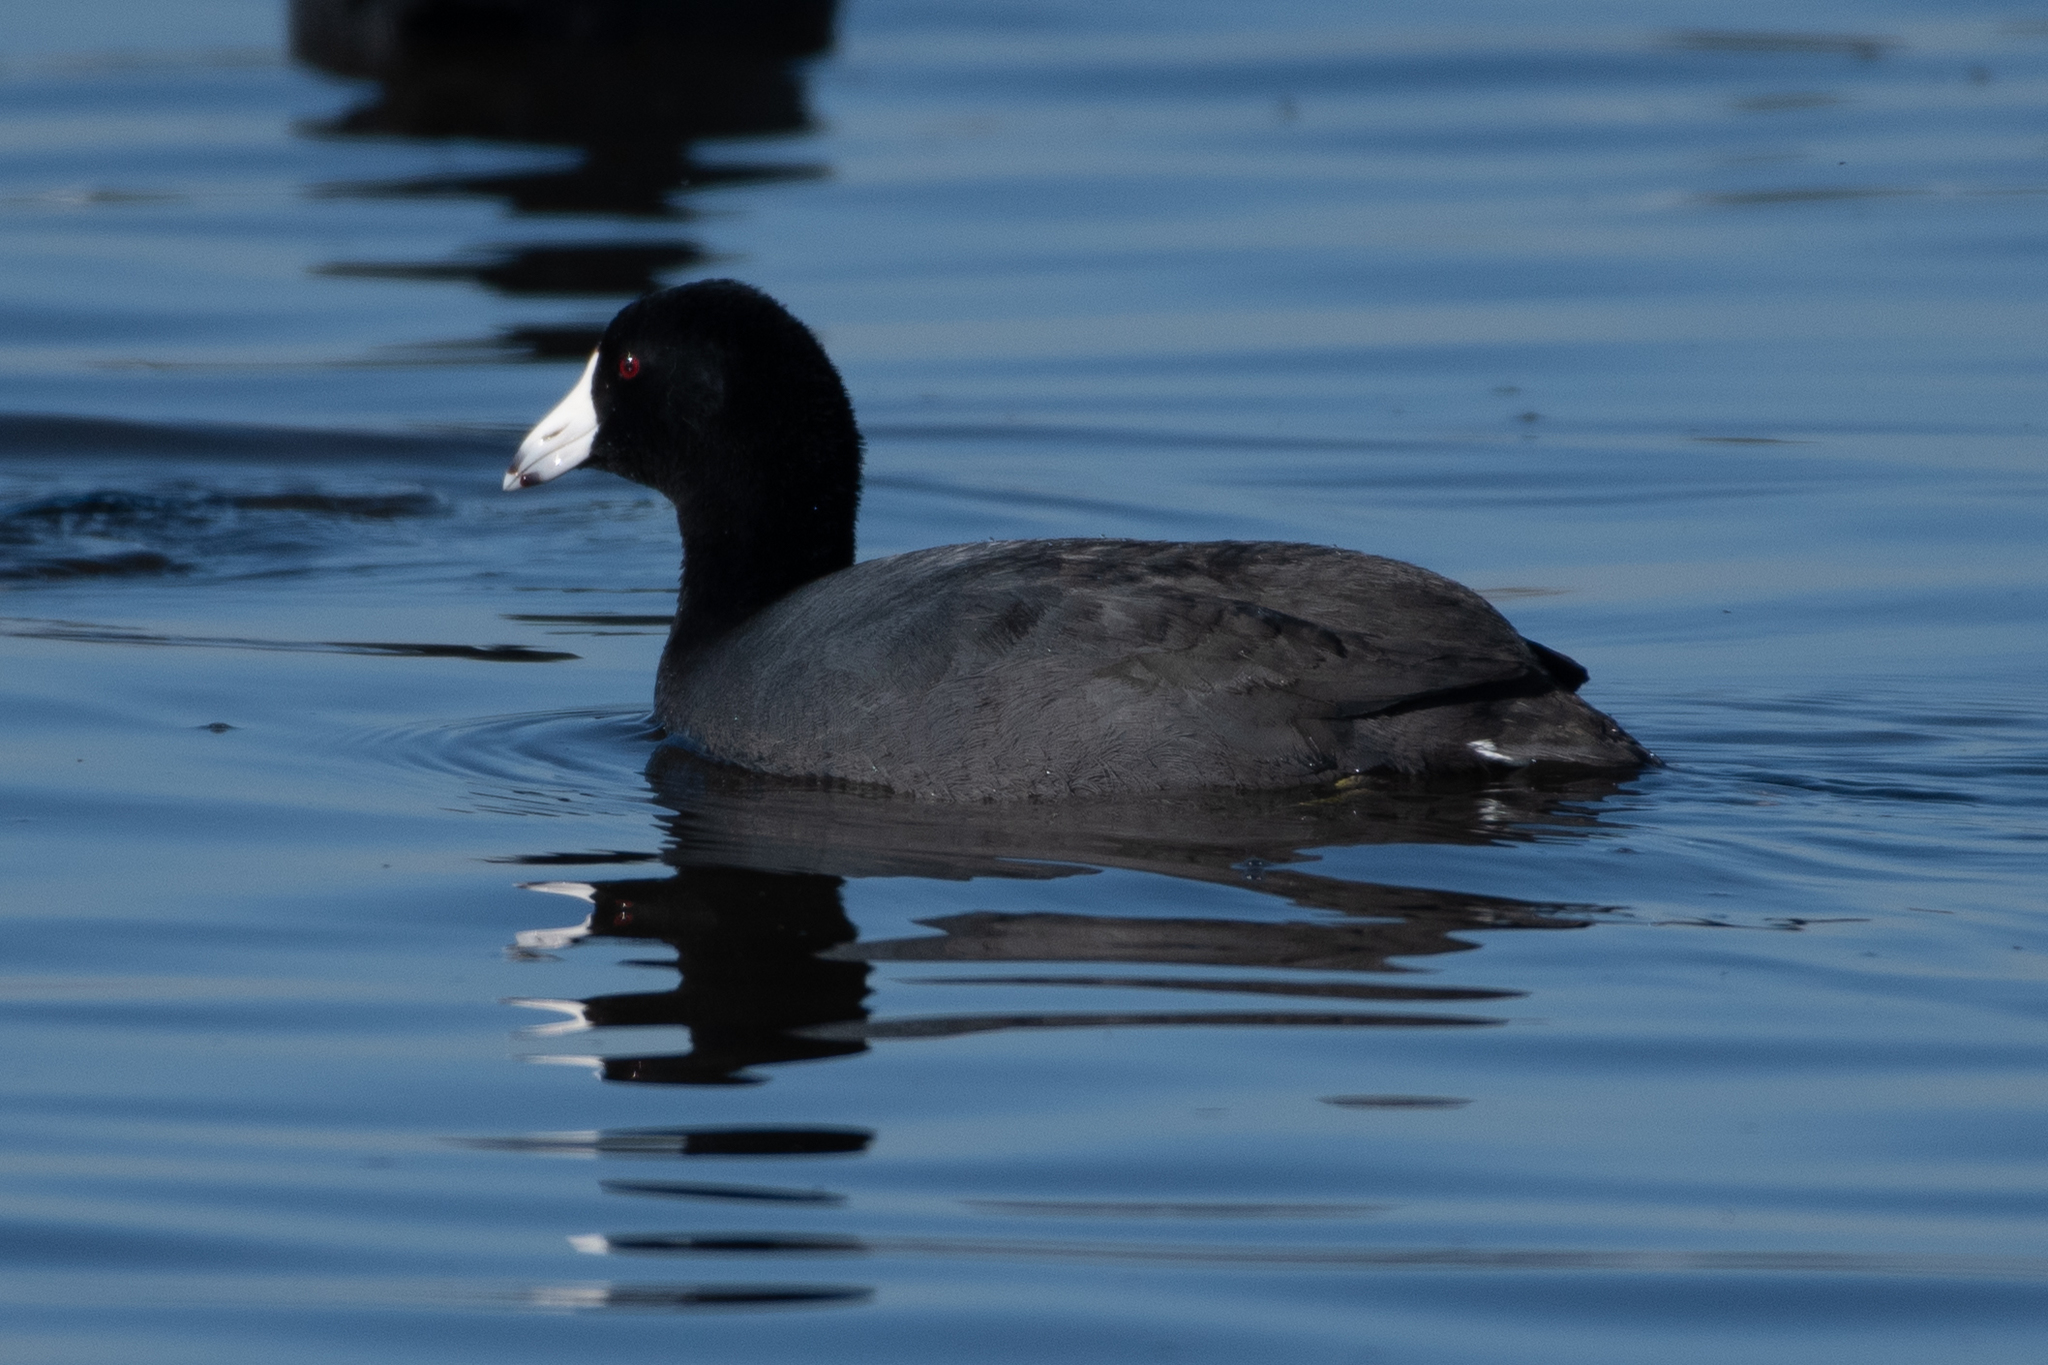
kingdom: Animalia
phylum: Chordata
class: Aves
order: Gruiformes
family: Rallidae
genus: Fulica
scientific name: Fulica americana
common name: American coot
